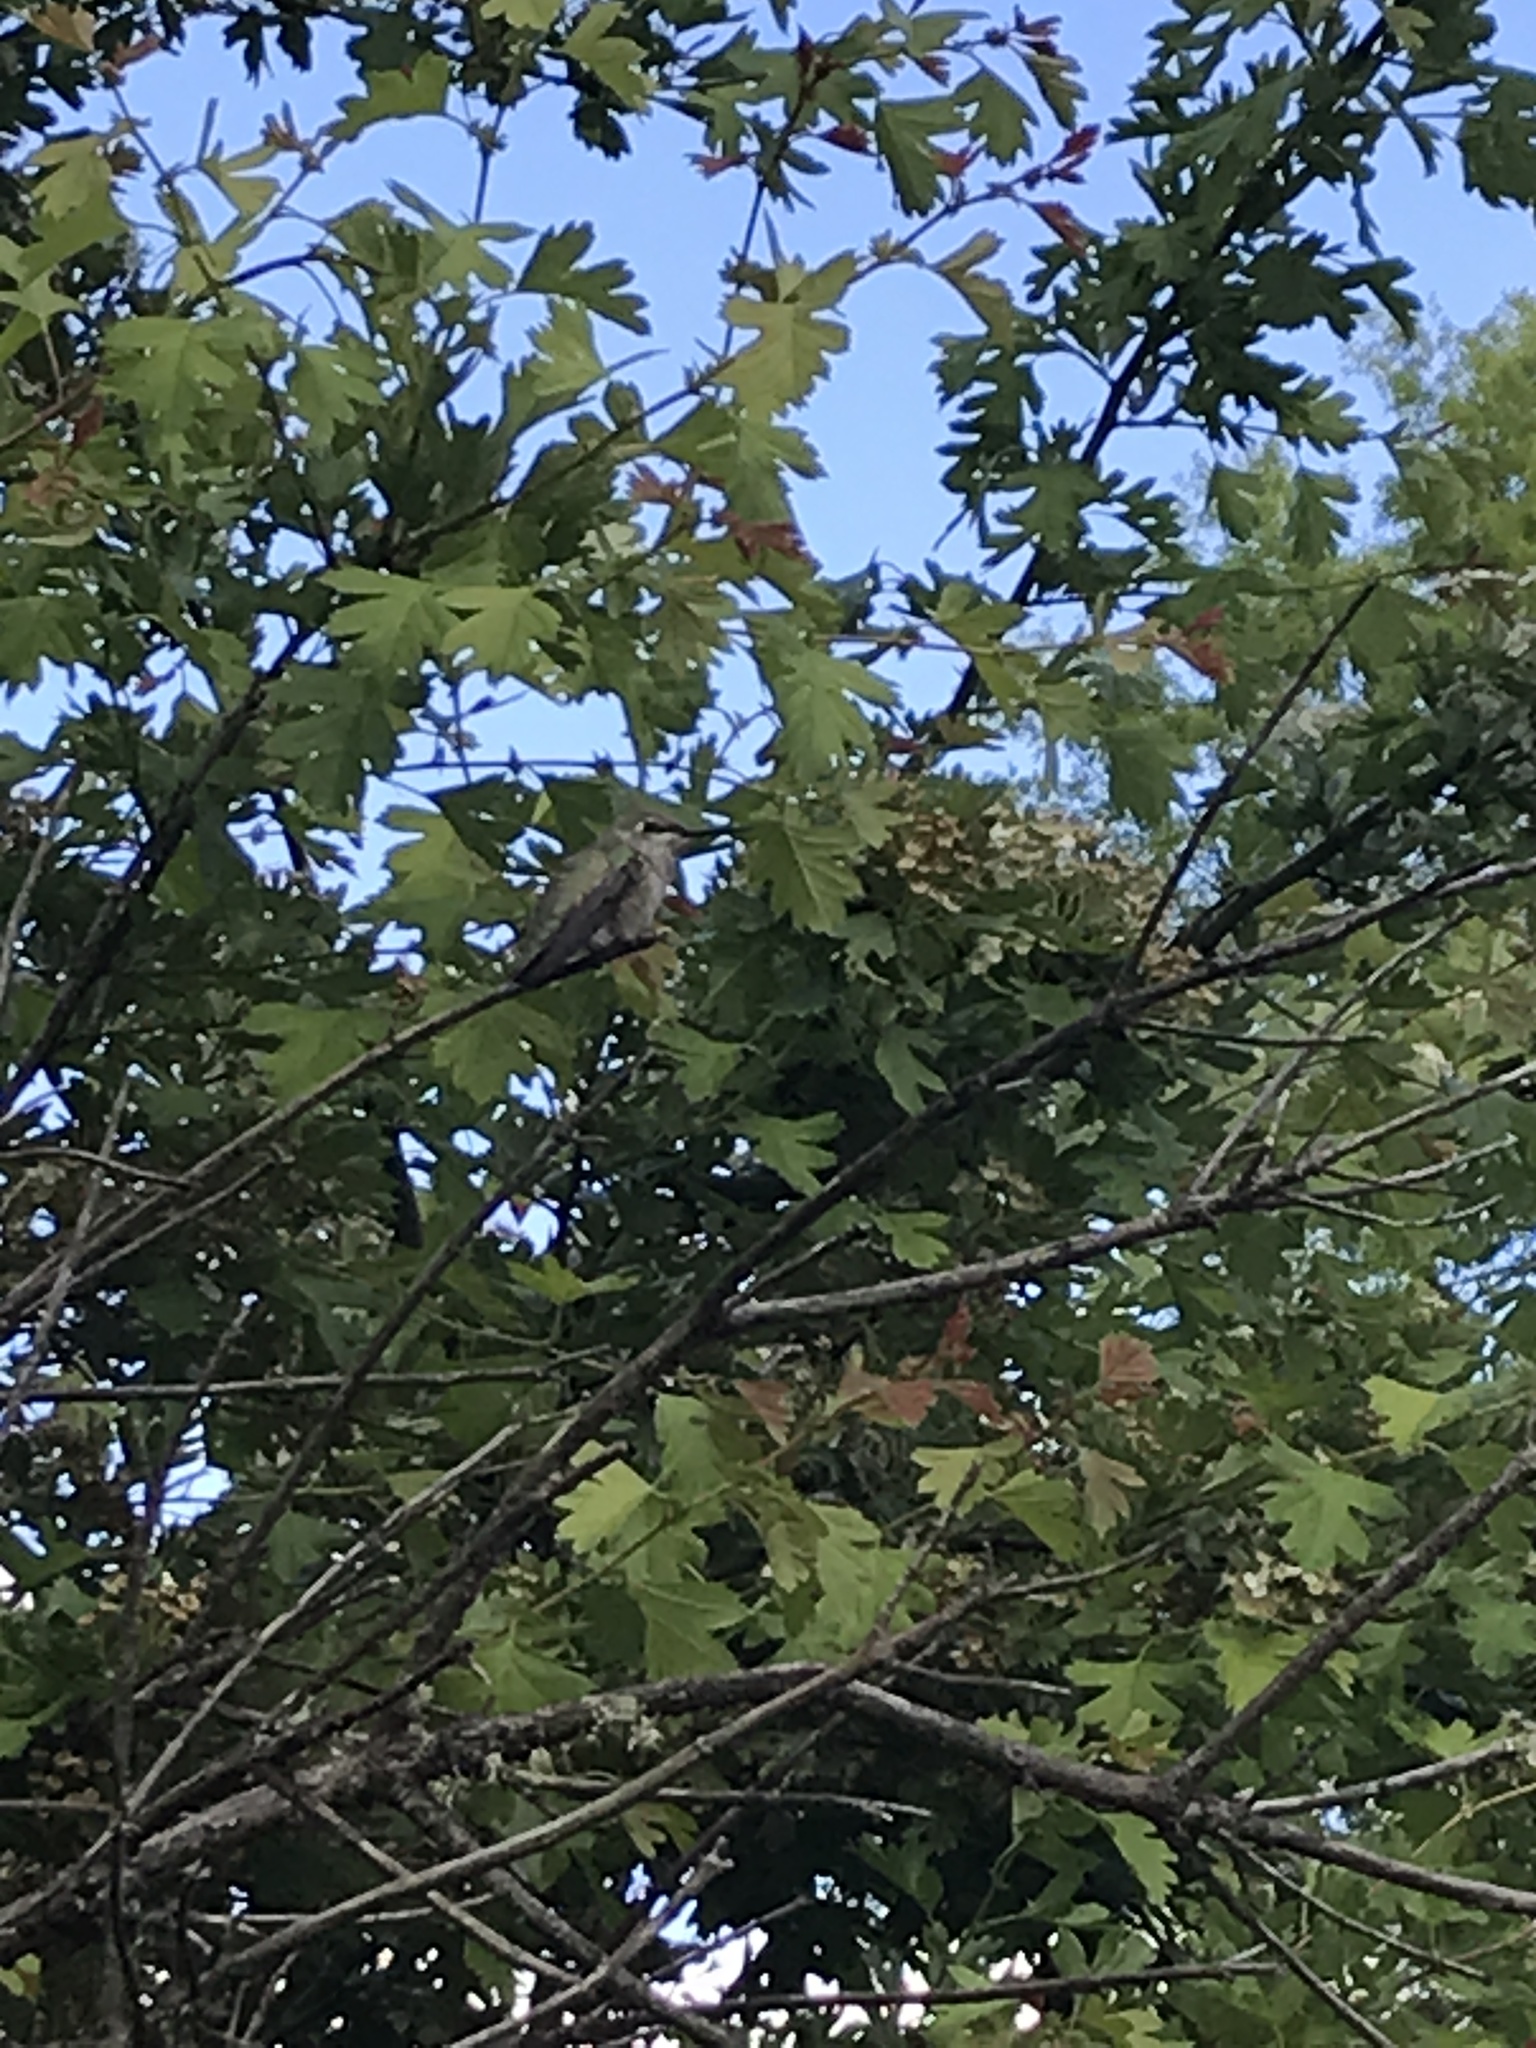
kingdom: Animalia
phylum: Chordata
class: Aves
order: Apodiformes
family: Trochilidae
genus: Calypte
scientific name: Calypte anna
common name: Anna's hummingbird
